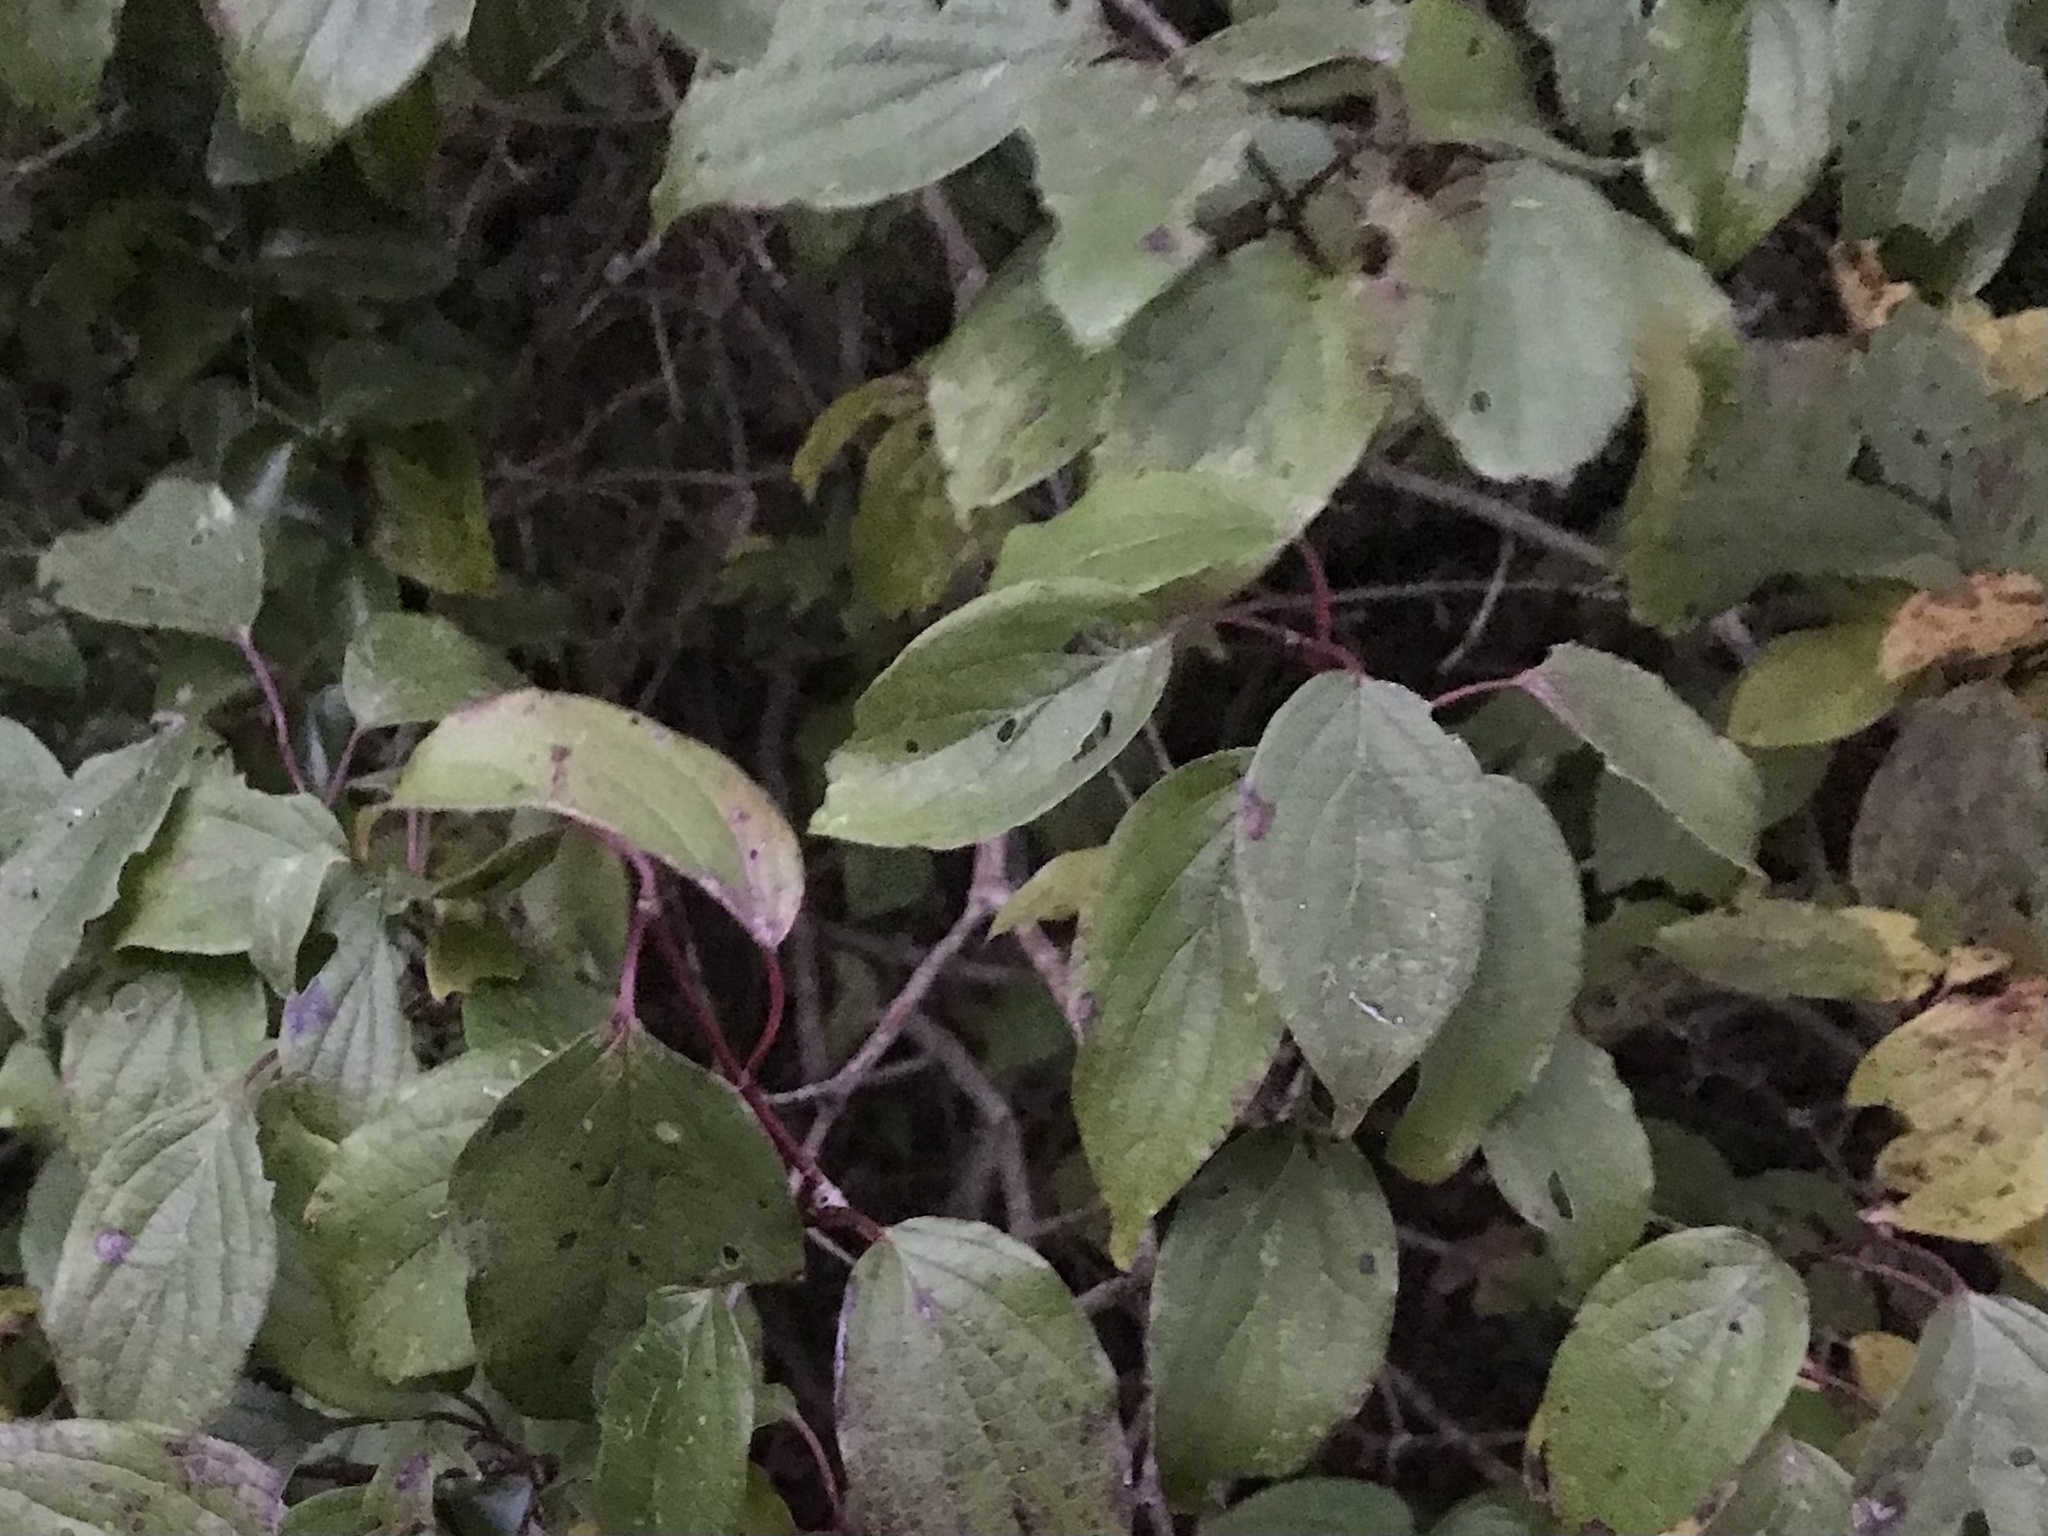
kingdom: Plantae
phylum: Tracheophyta
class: Magnoliopsida
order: Cornales
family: Cornaceae
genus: Cornus
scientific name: Cornus drummondii
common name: Rough-leaf dogwood
